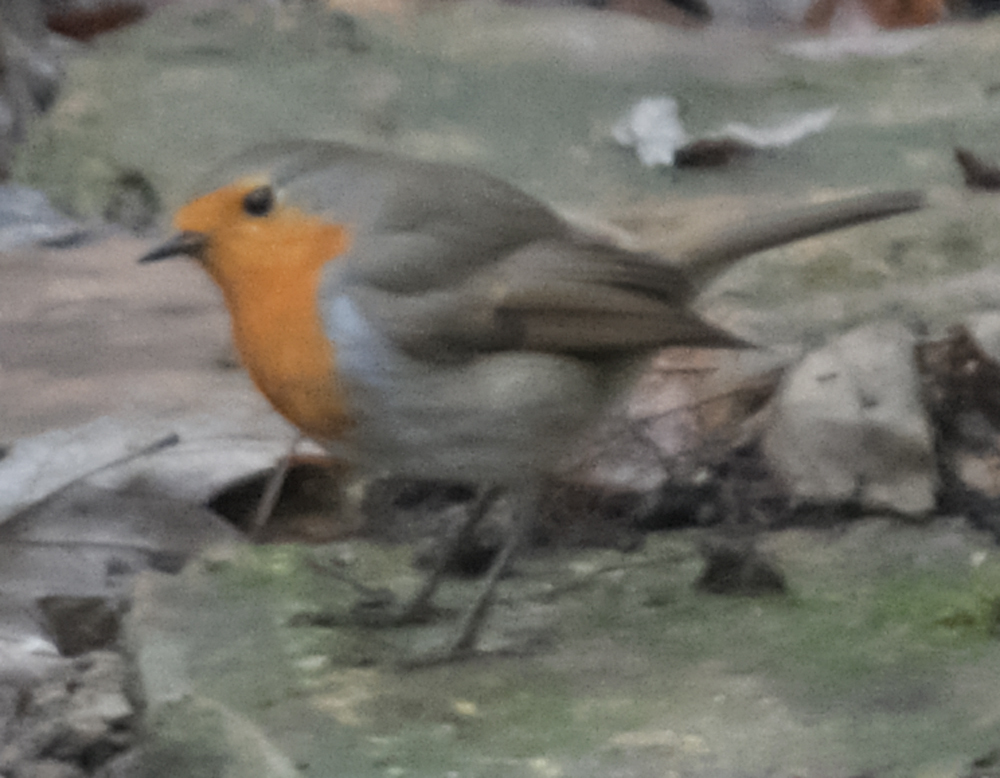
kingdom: Animalia
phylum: Chordata
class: Aves
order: Passeriformes
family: Muscicapidae
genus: Erithacus
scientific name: Erithacus rubecula
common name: European robin
